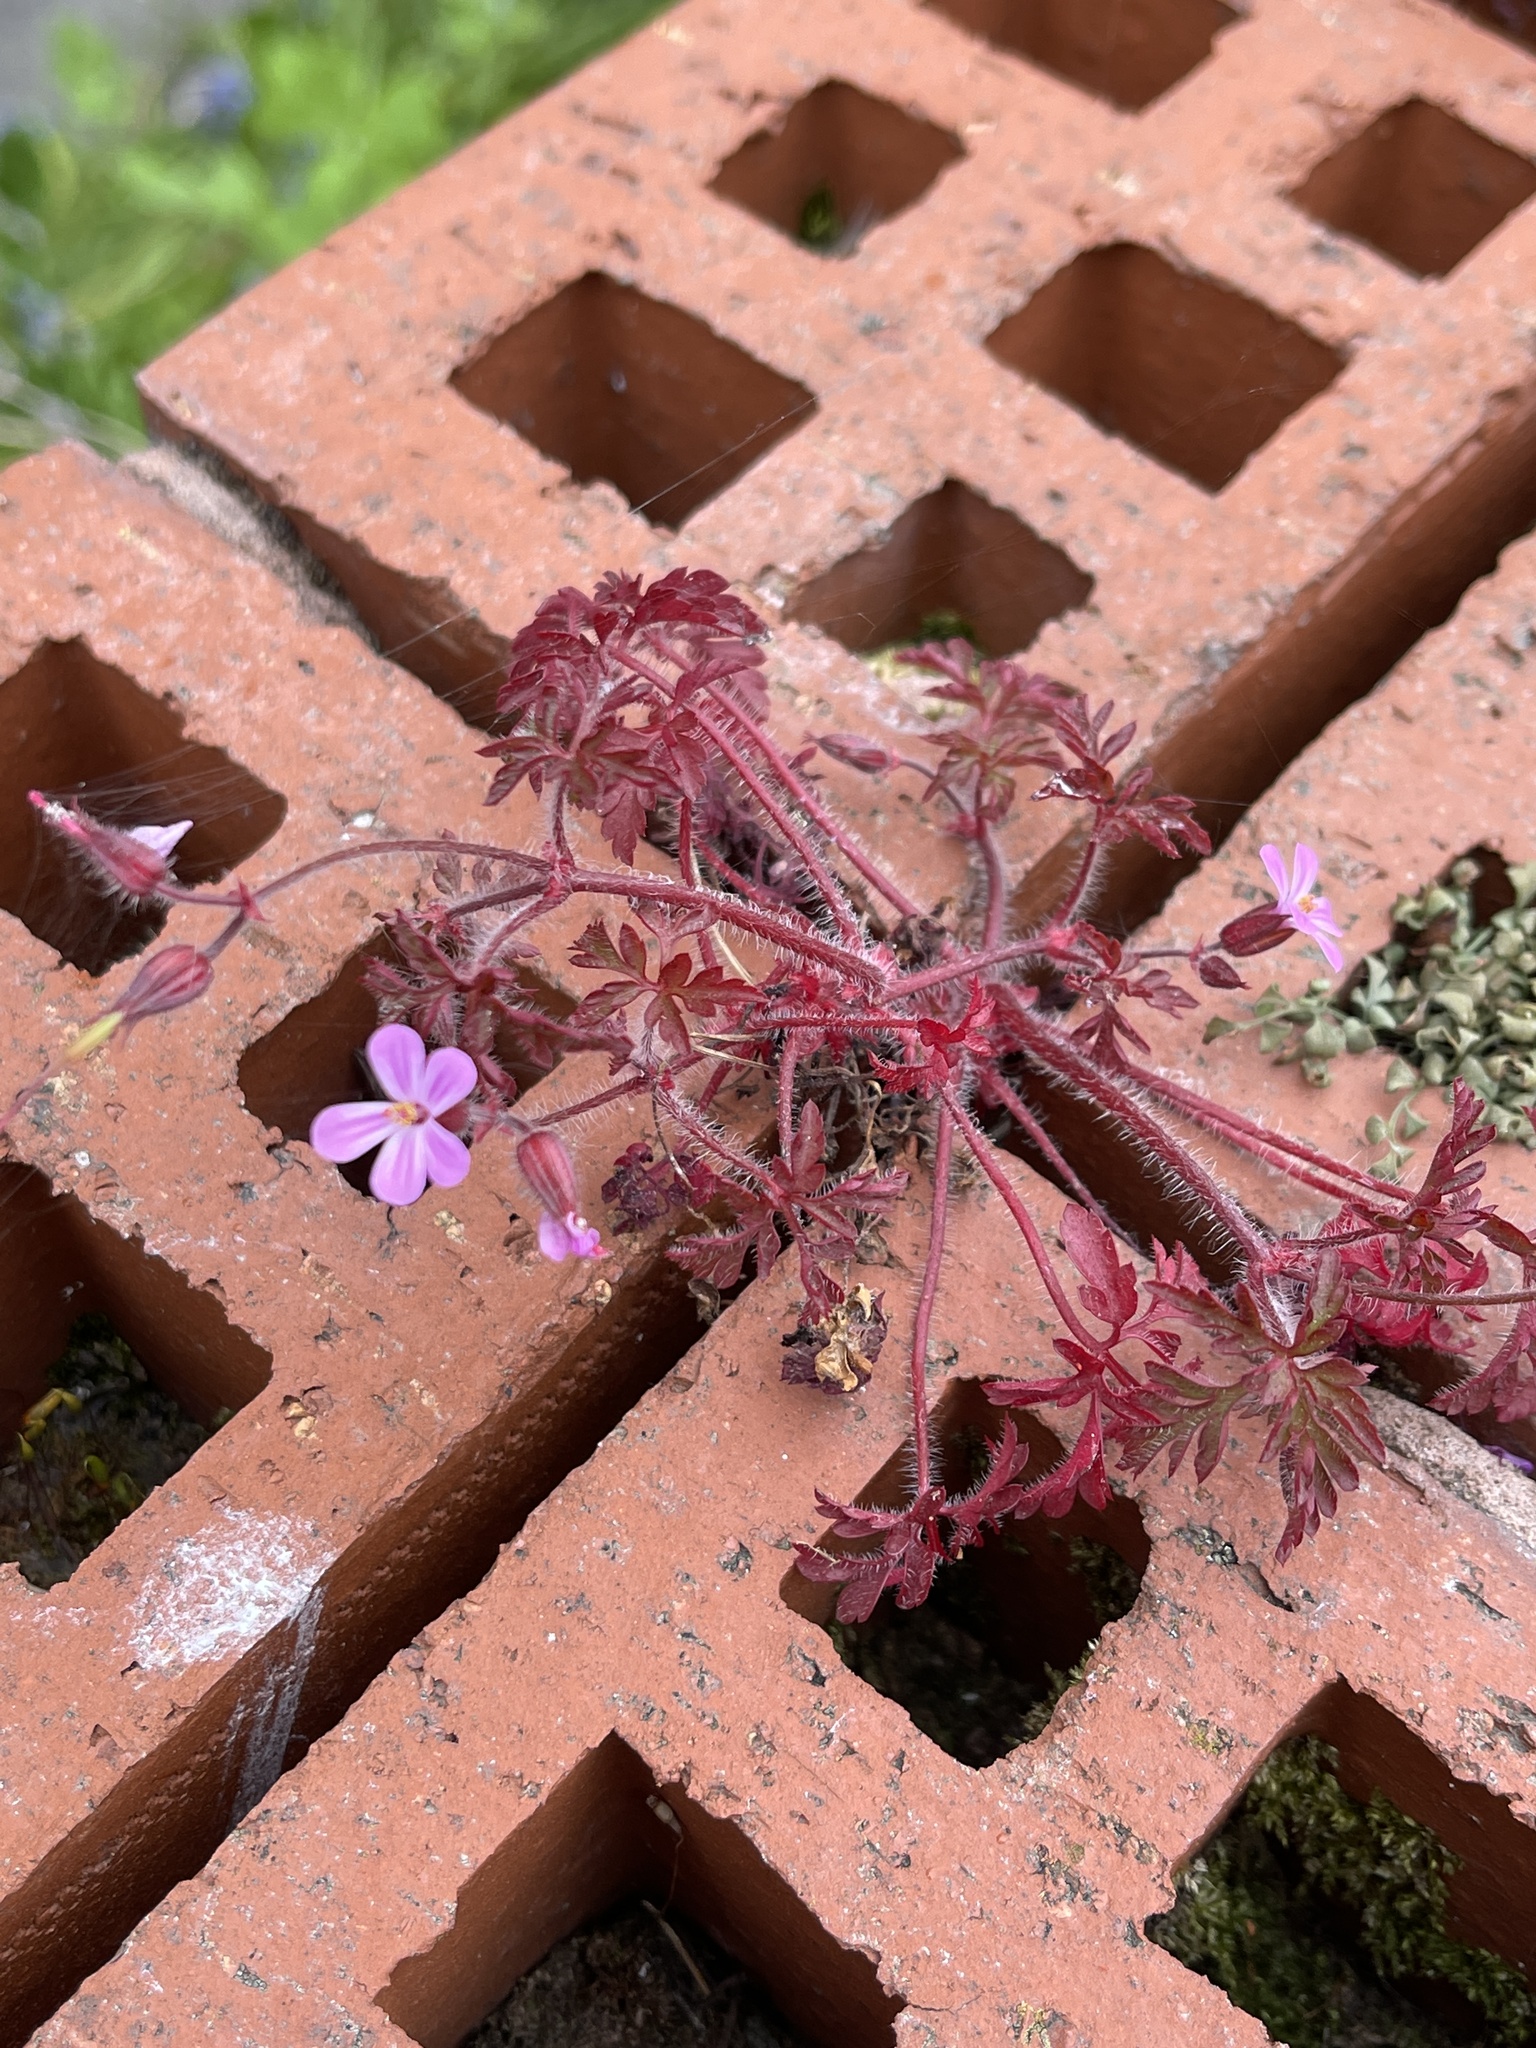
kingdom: Plantae
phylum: Tracheophyta
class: Magnoliopsida
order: Geraniales
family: Geraniaceae
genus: Geranium
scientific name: Geranium robertianum
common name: Herb-robert
